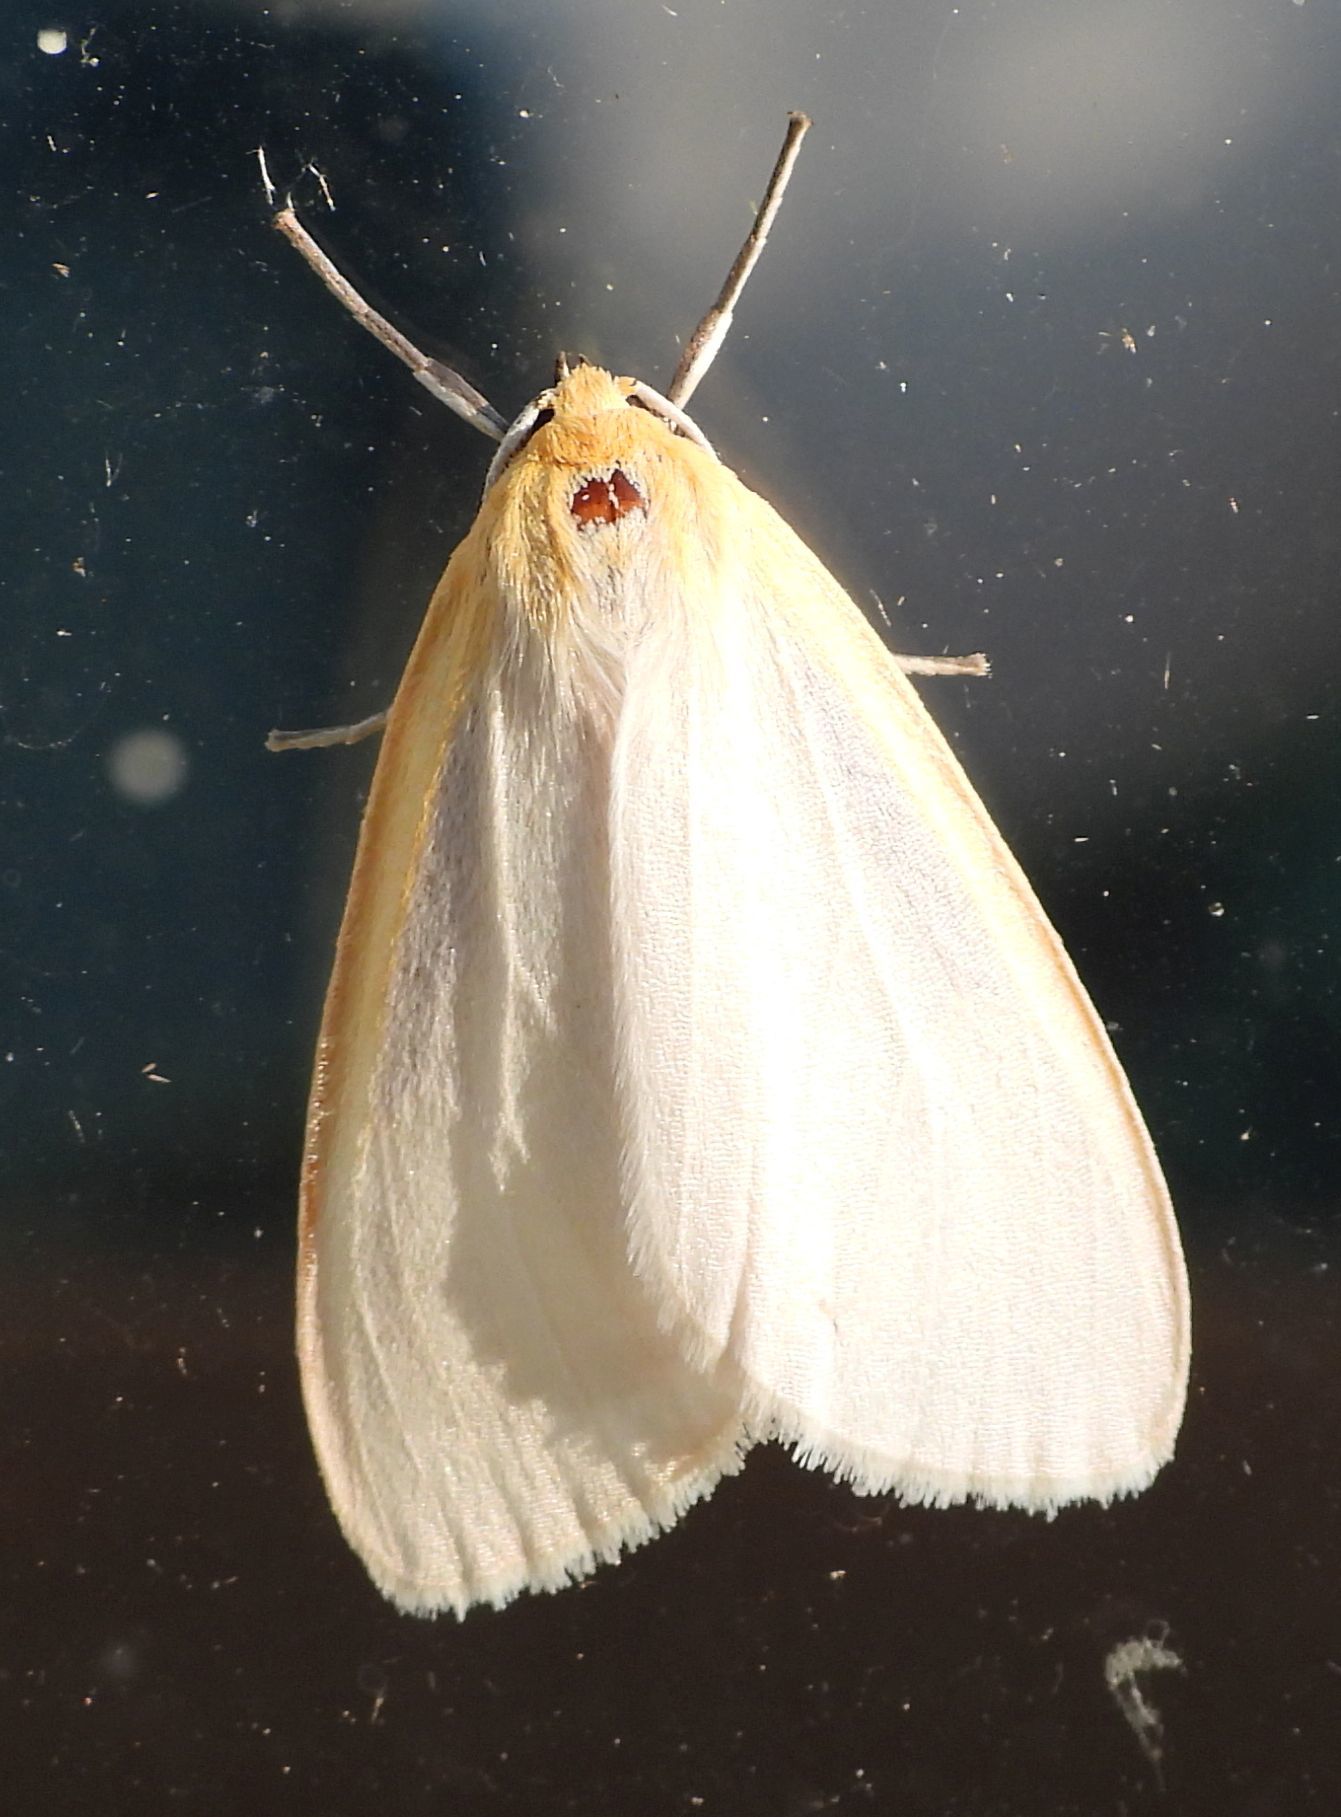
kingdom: Animalia
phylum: Arthropoda
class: Insecta
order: Lepidoptera
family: Erebidae
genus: Cycnia
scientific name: Cycnia tenera
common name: Delicate cycnia moth
